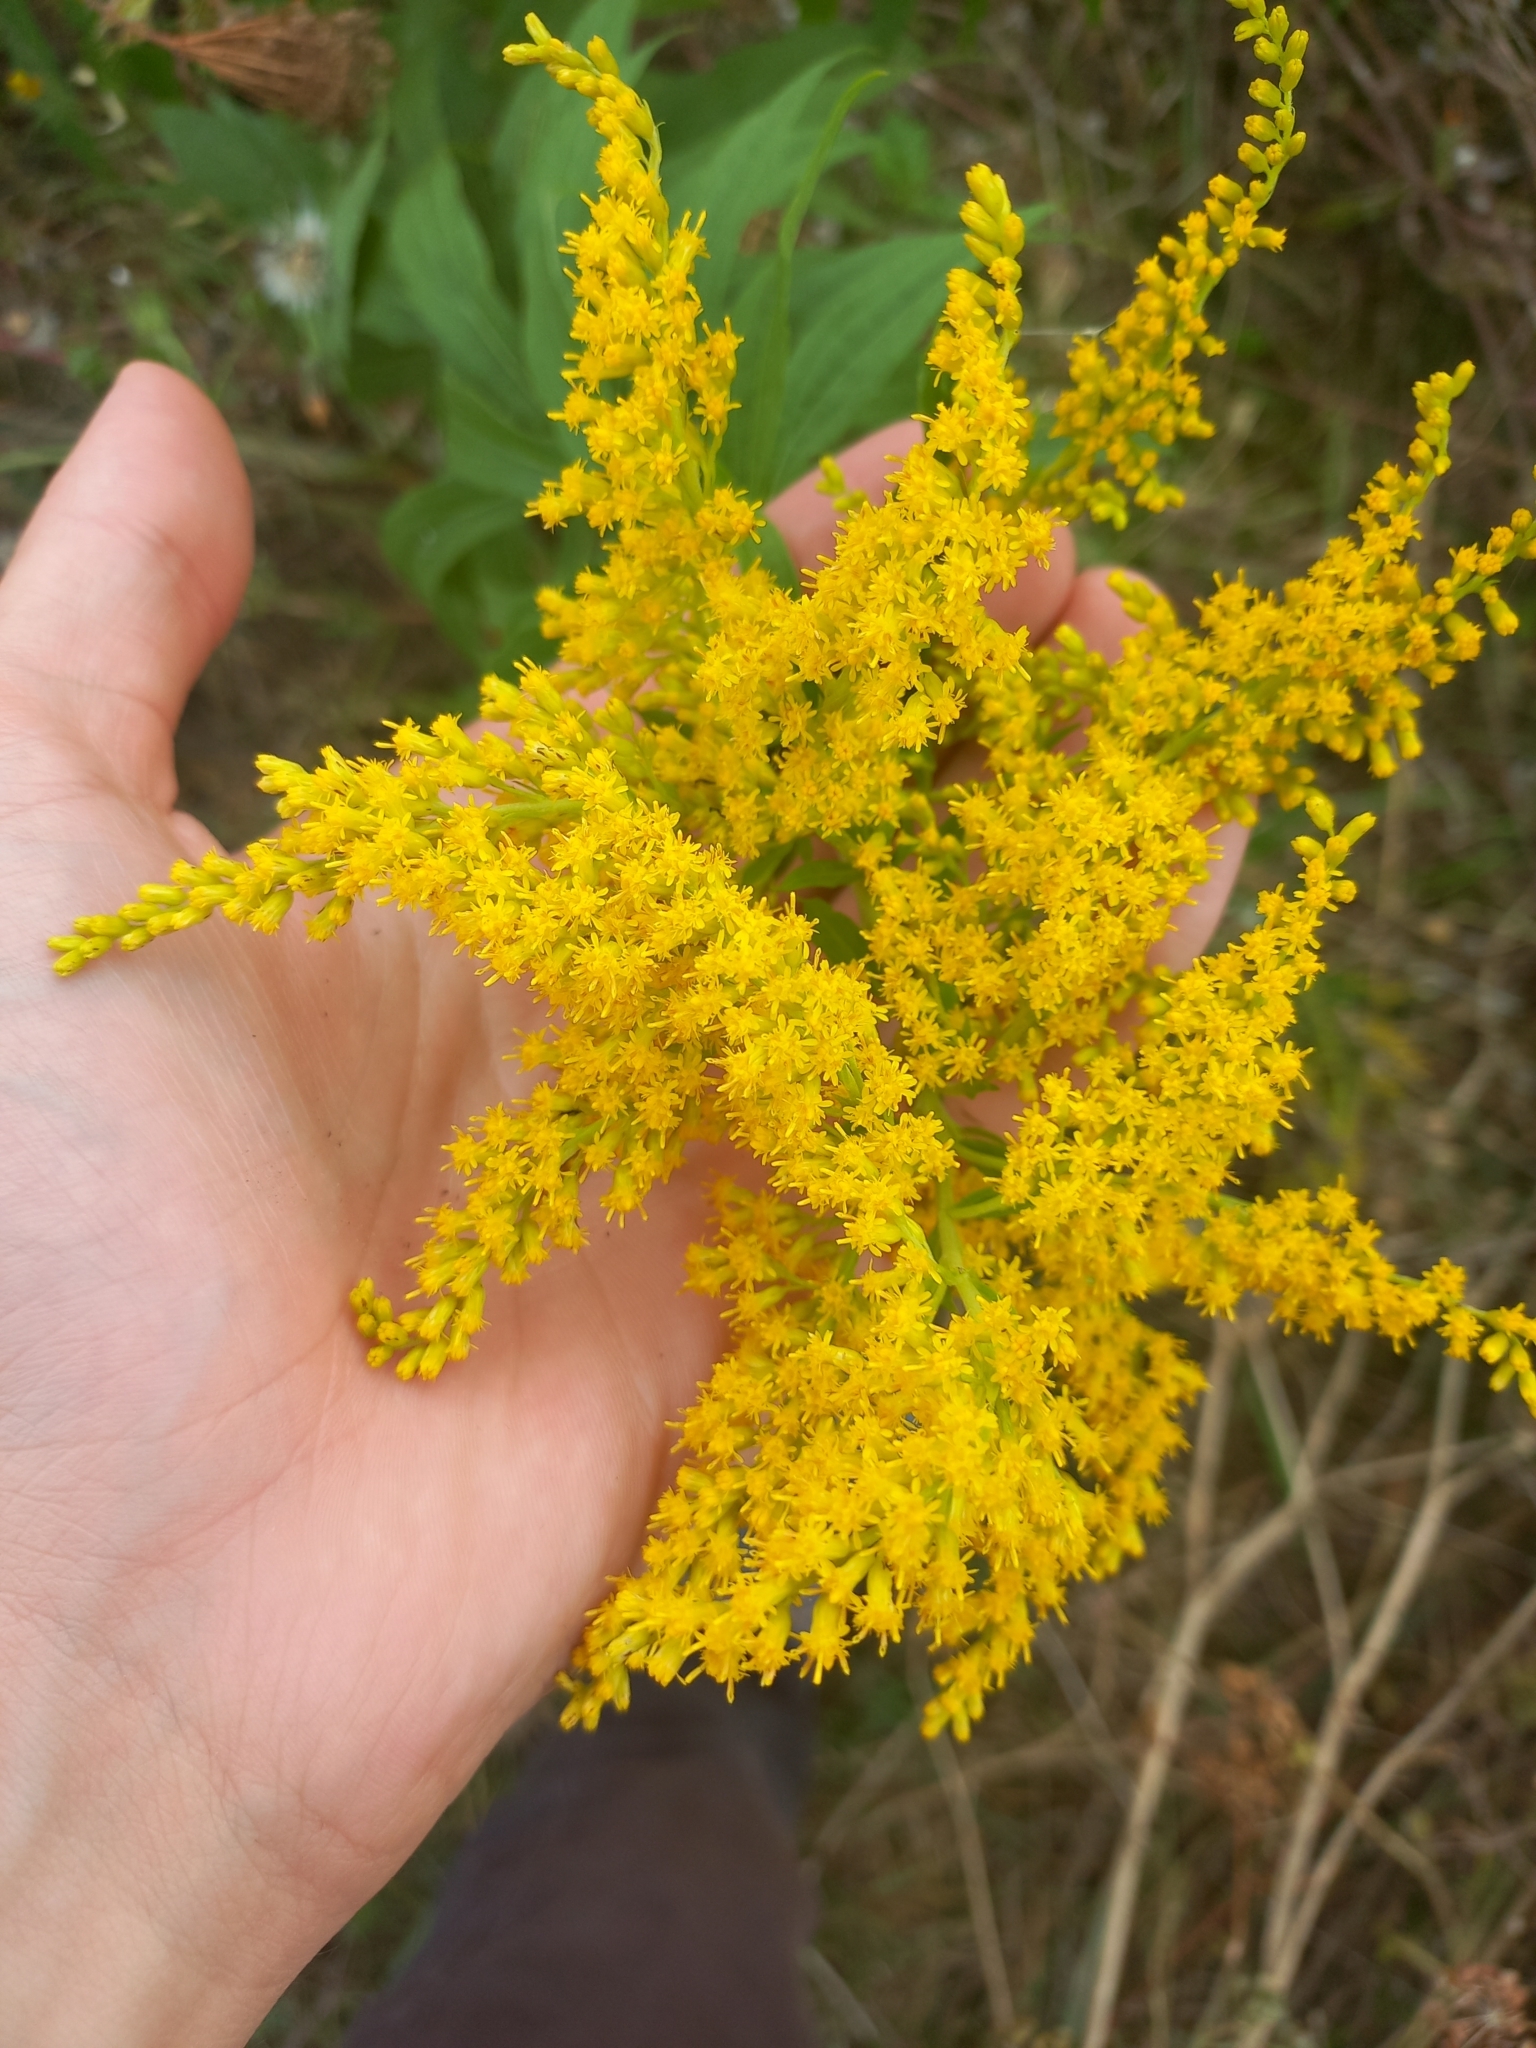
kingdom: Plantae
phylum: Tracheophyta
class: Magnoliopsida
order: Asterales
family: Asteraceae
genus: Solidago
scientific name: Solidago canadensis
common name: Canada goldenrod
